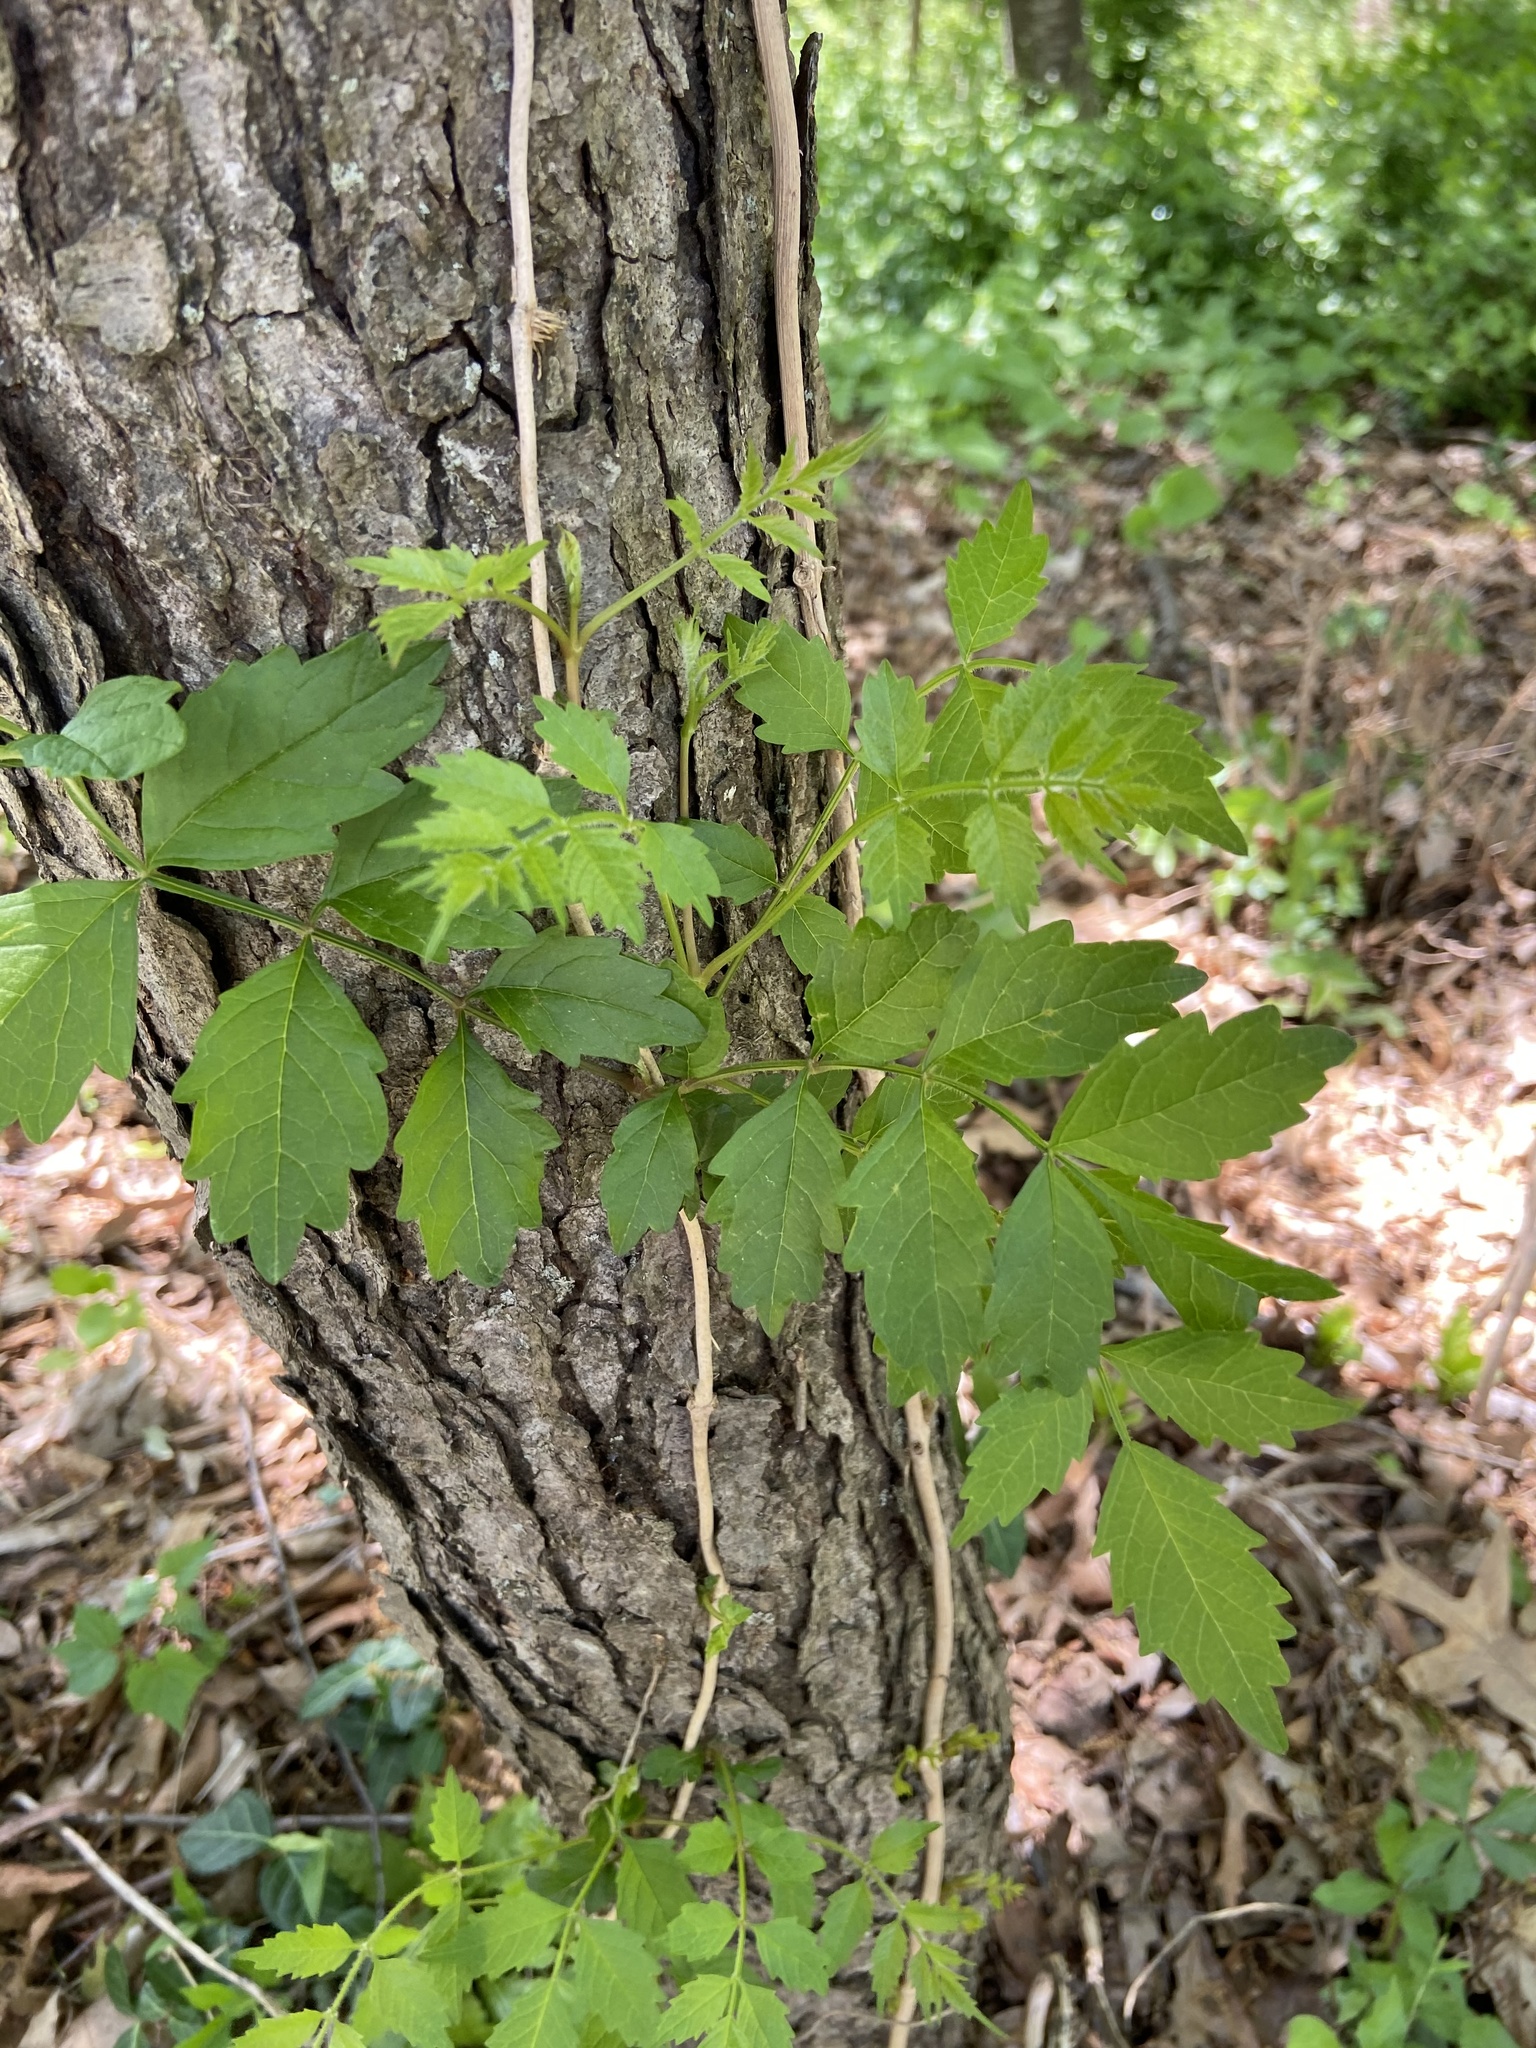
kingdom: Plantae
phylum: Tracheophyta
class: Magnoliopsida
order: Lamiales
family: Bignoniaceae
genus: Campsis
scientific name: Campsis radicans
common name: Trumpet-creeper
